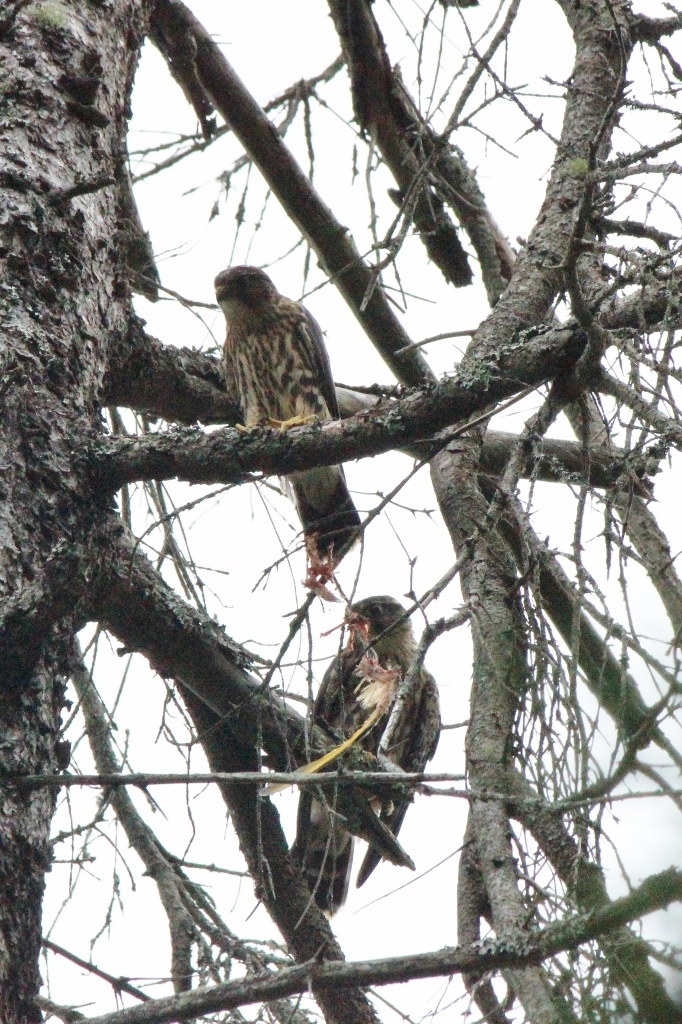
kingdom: Animalia
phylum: Chordata
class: Aves
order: Falconiformes
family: Falconidae
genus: Falco
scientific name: Falco columbarius
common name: Merlin
